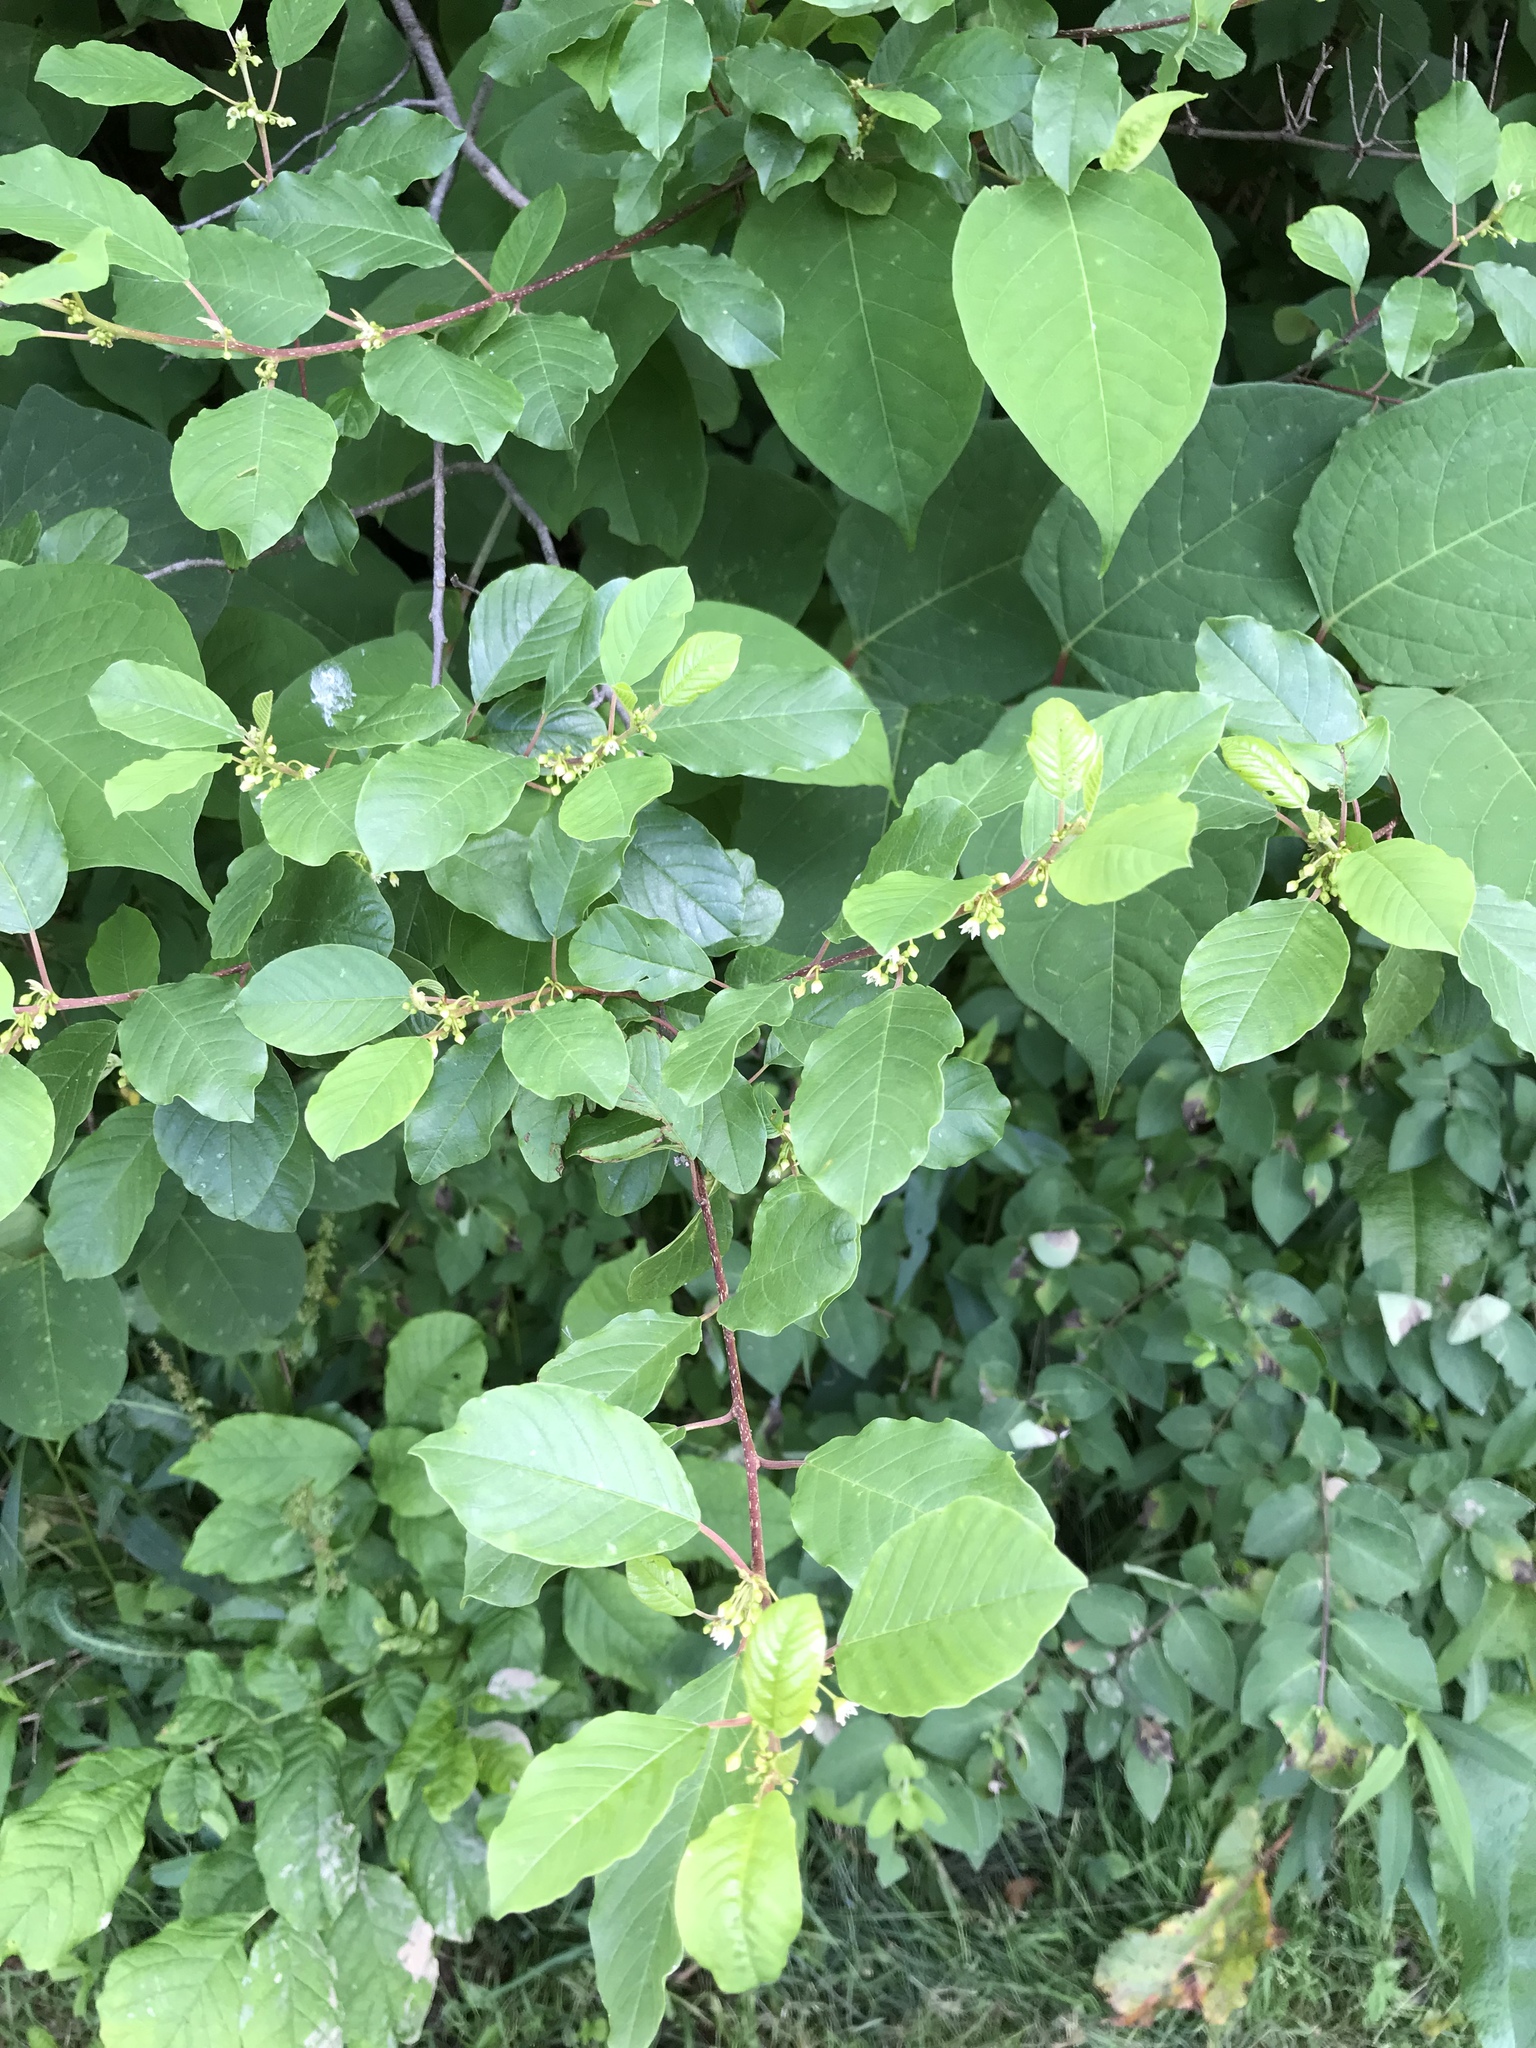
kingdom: Plantae
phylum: Tracheophyta
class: Magnoliopsida
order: Rosales
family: Rhamnaceae
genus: Frangula
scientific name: Frangula alnus
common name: Alder buckthorn
